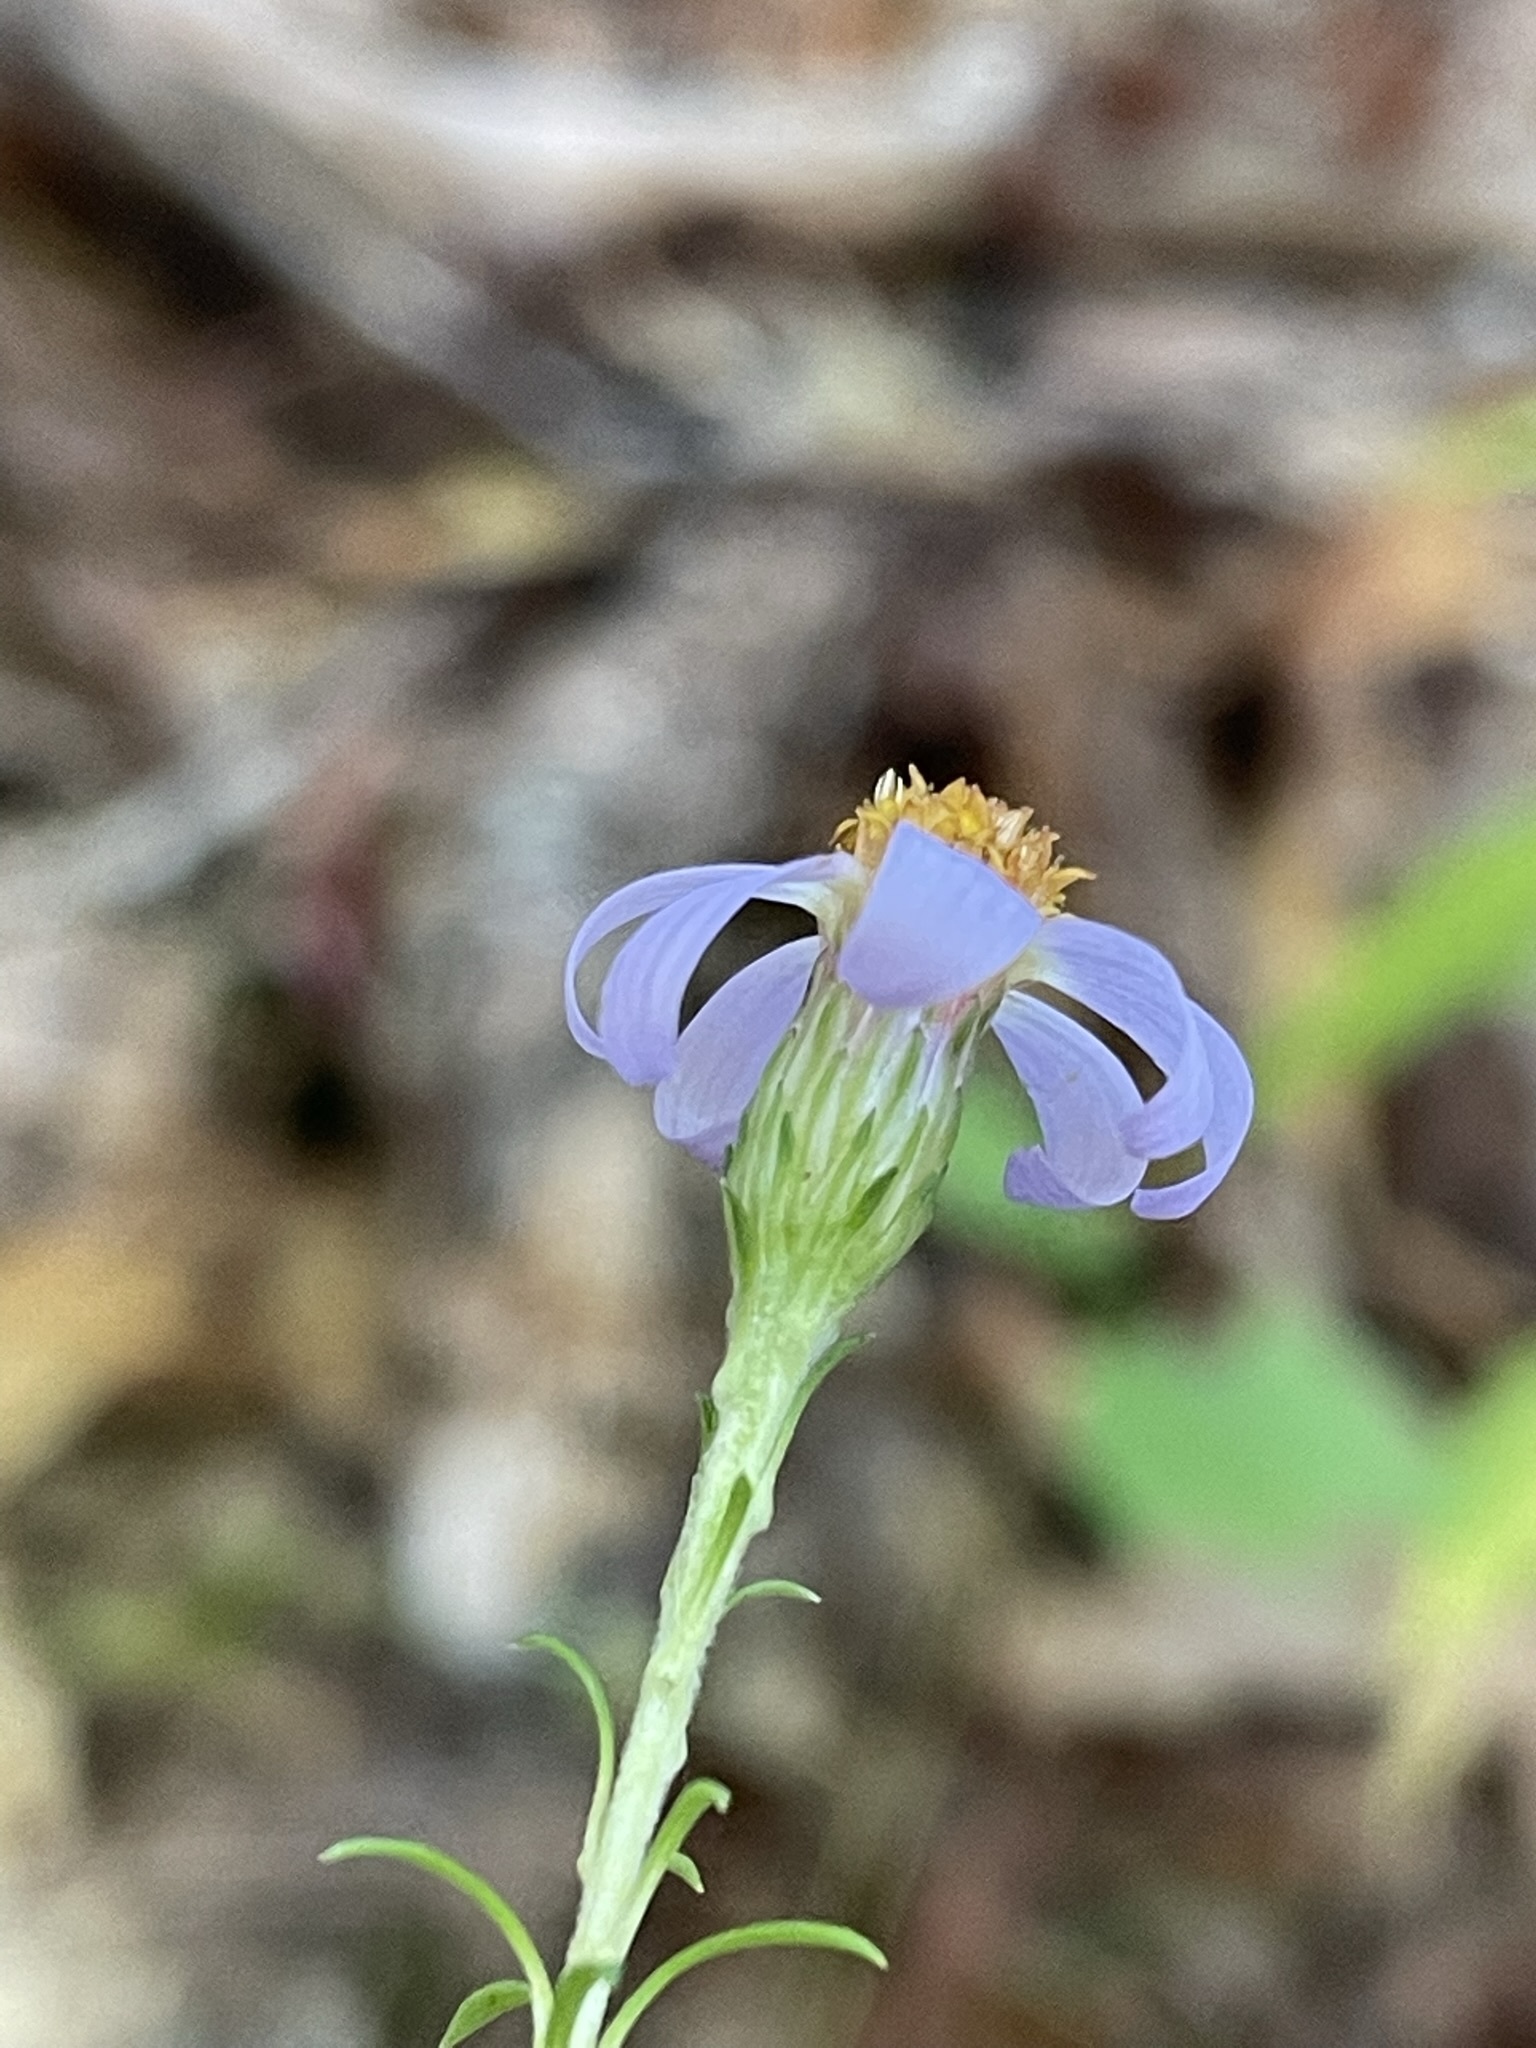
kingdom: Plantae
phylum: Tracheophyta
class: Magnoliopsida
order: Asterales
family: Asteraceae
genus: Ionactis
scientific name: Ionactis linariifolia
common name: Flax-leaf aster
